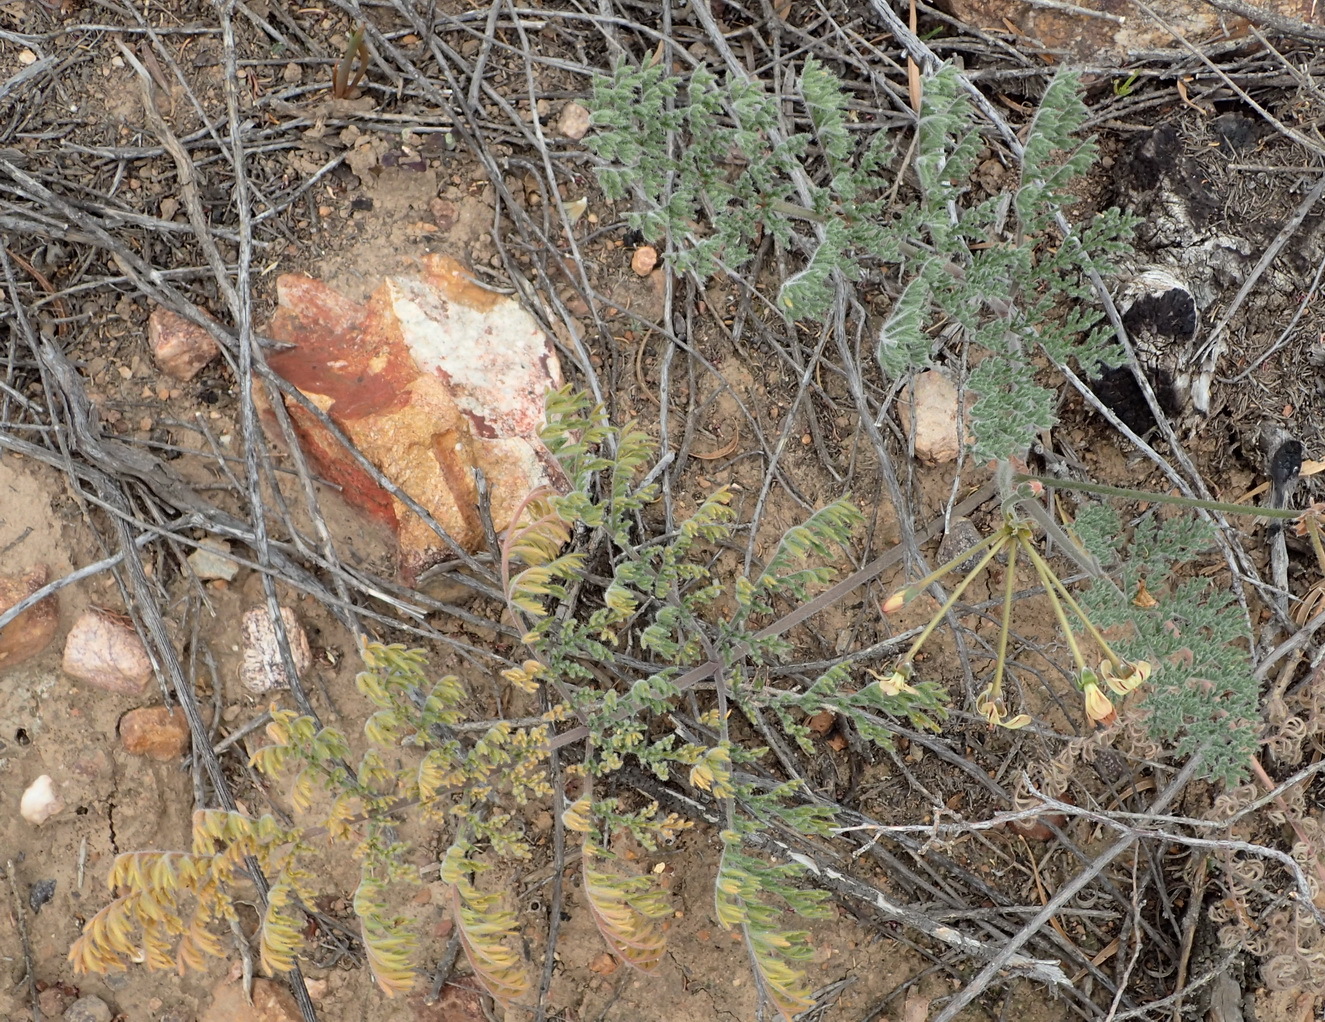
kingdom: Plantae
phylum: Tracheophyta
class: Magnoliopsida
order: Geraniales
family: Geraniaceae
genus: Pelargonium
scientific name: Pelargonium triste
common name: Night-scent pelargonium
